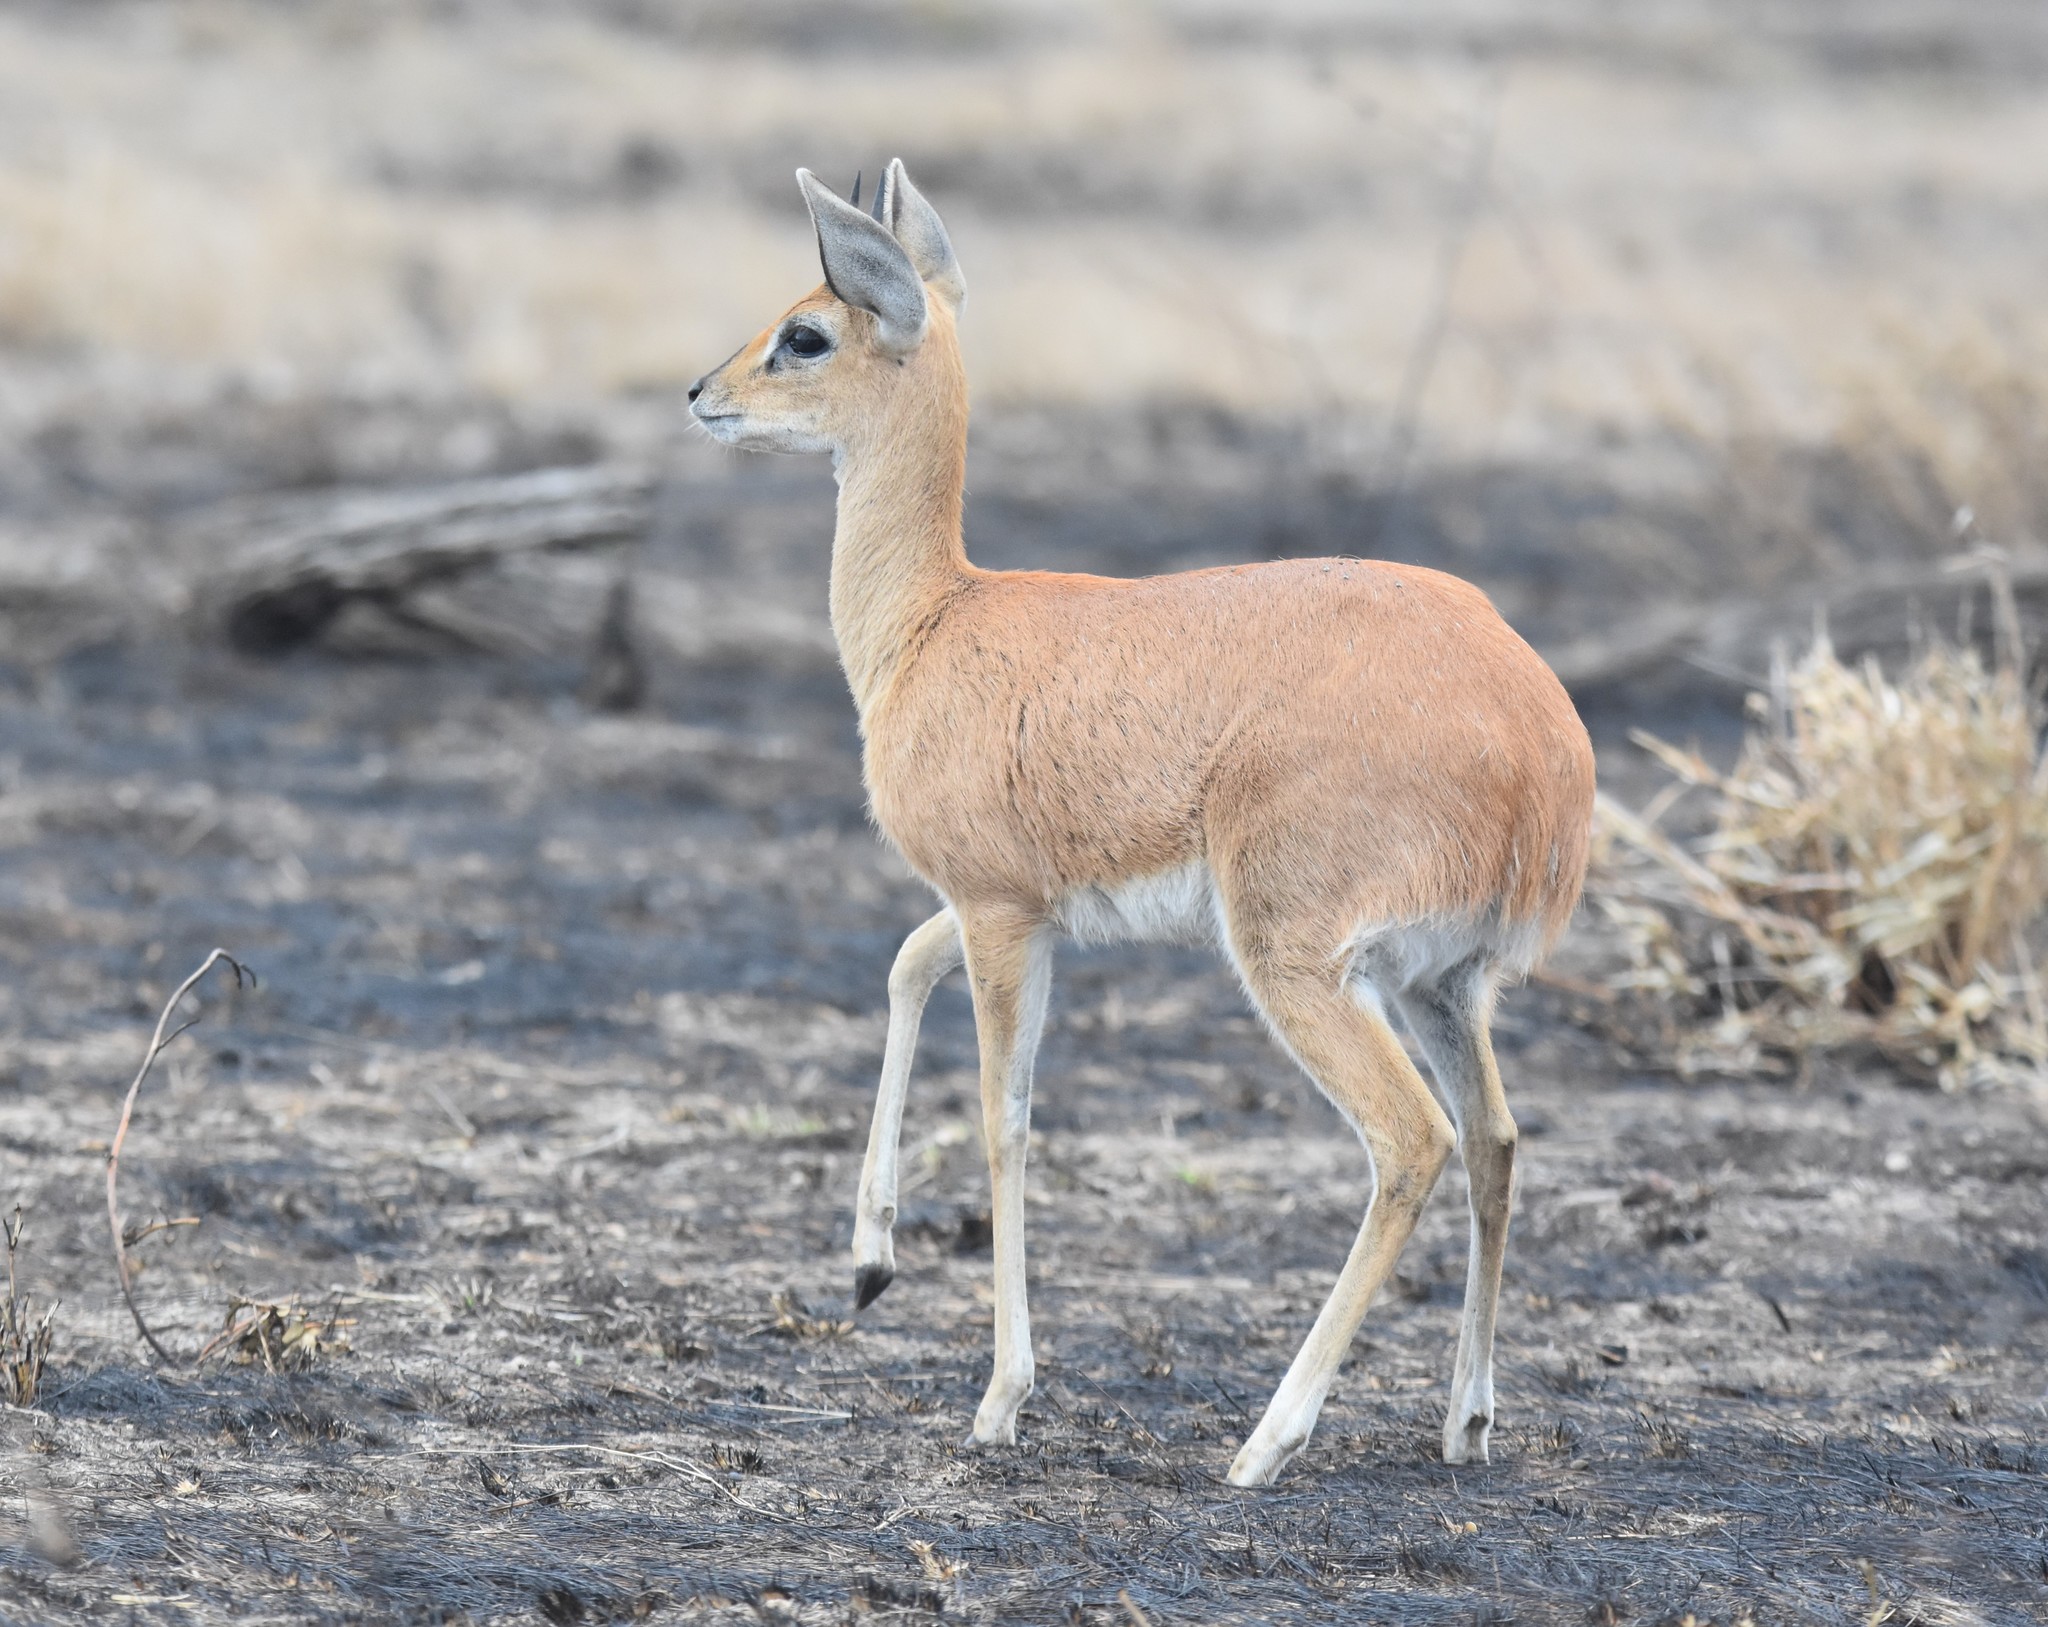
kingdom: Animalia
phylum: Chordata
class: Mammalia
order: Artiodactyla
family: Bovidae
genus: Raphicerus
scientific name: Raphicerus campestris
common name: Steenbok
